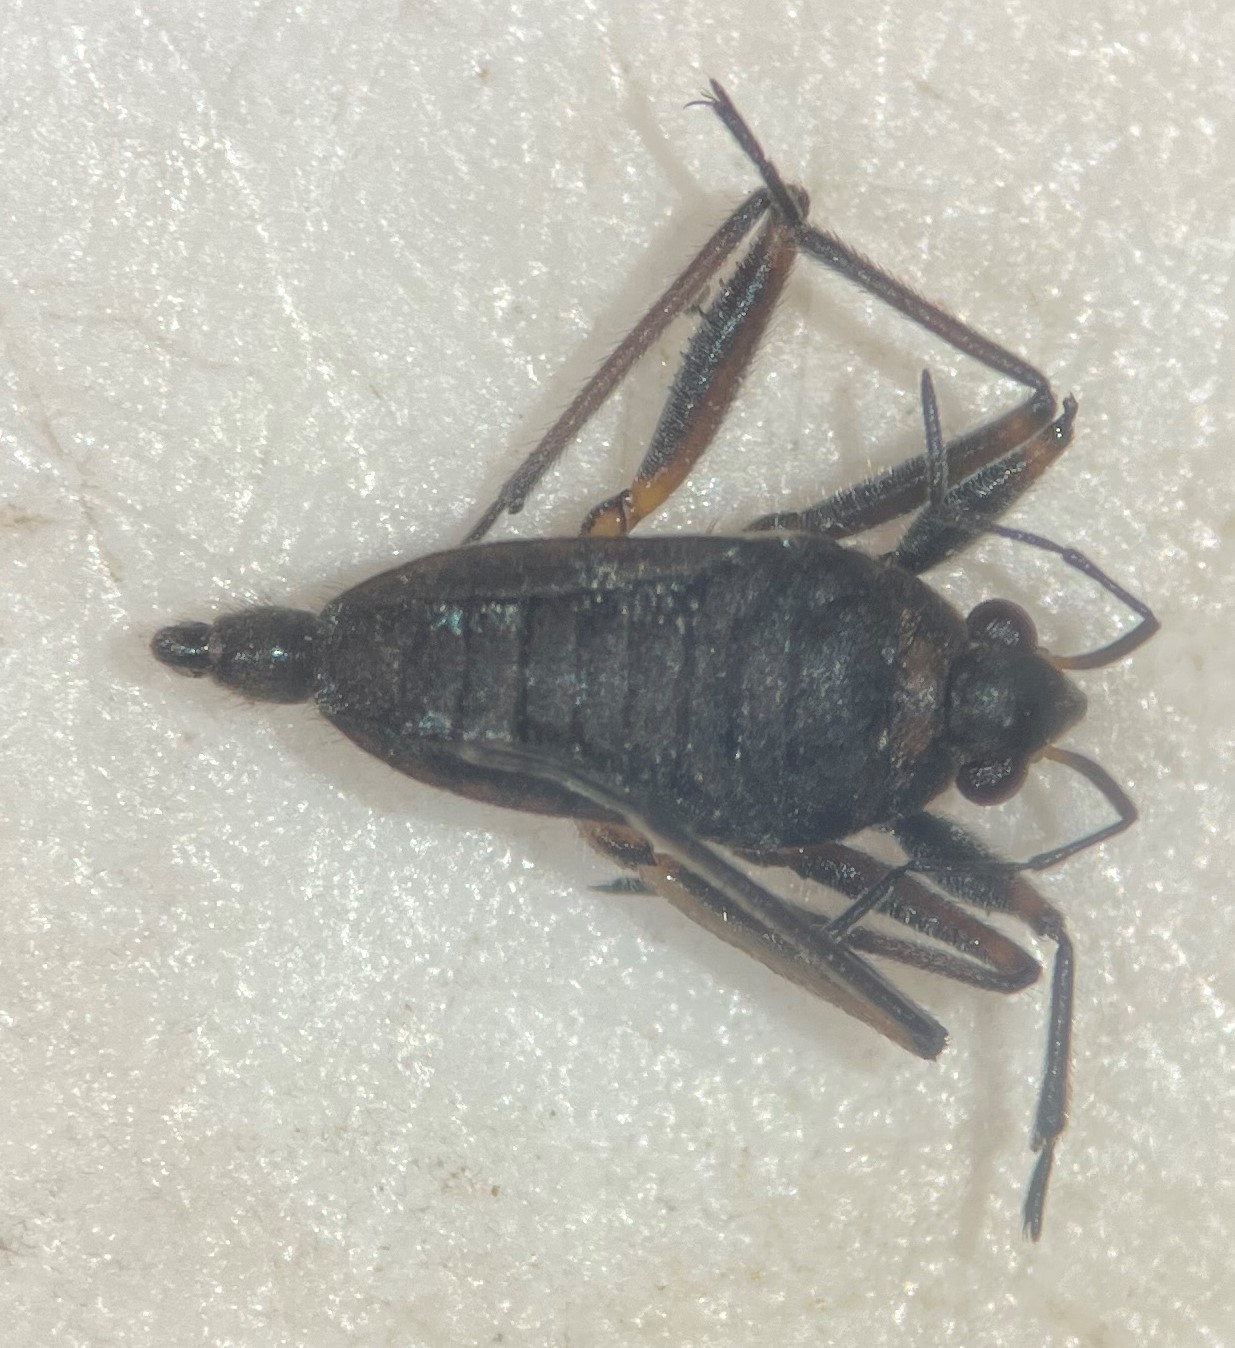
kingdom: Animalia
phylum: Arthropoda
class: Insecta
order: Hemiptera
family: Veliidae
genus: Microvelia
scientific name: Microvelia gerhardi
